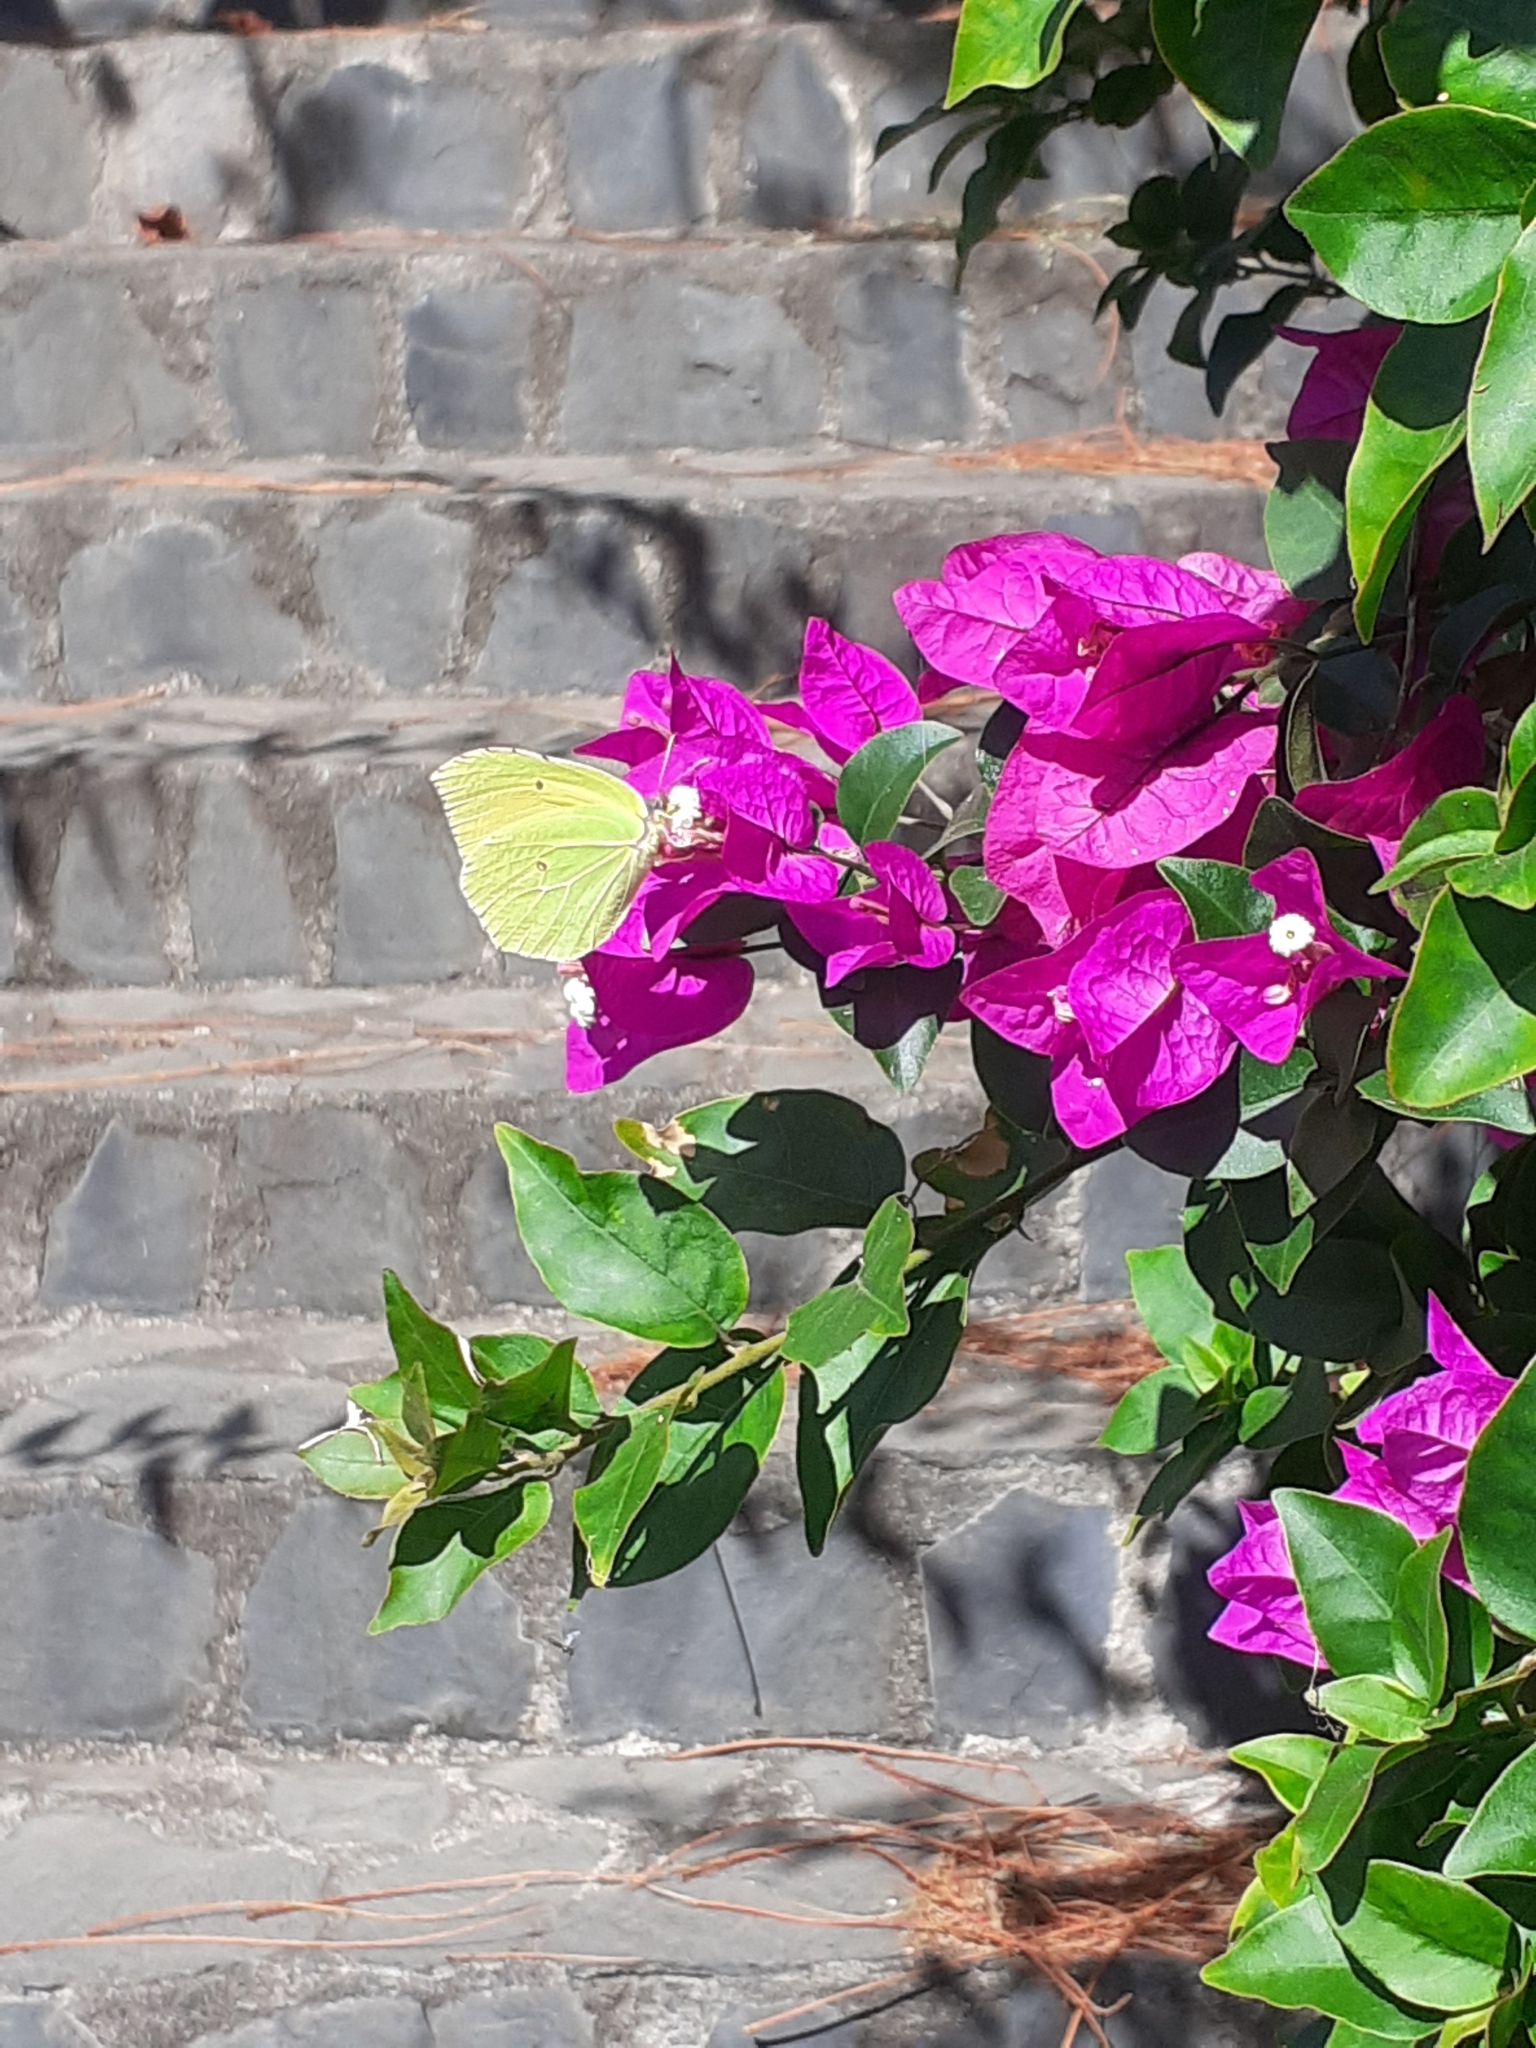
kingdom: Animalia
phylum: Arthropoda
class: Insecta
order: Lepidoptera
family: Pieridae
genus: Gonepteryx
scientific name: Gonepteryx cleobule
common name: Canary brimstone
